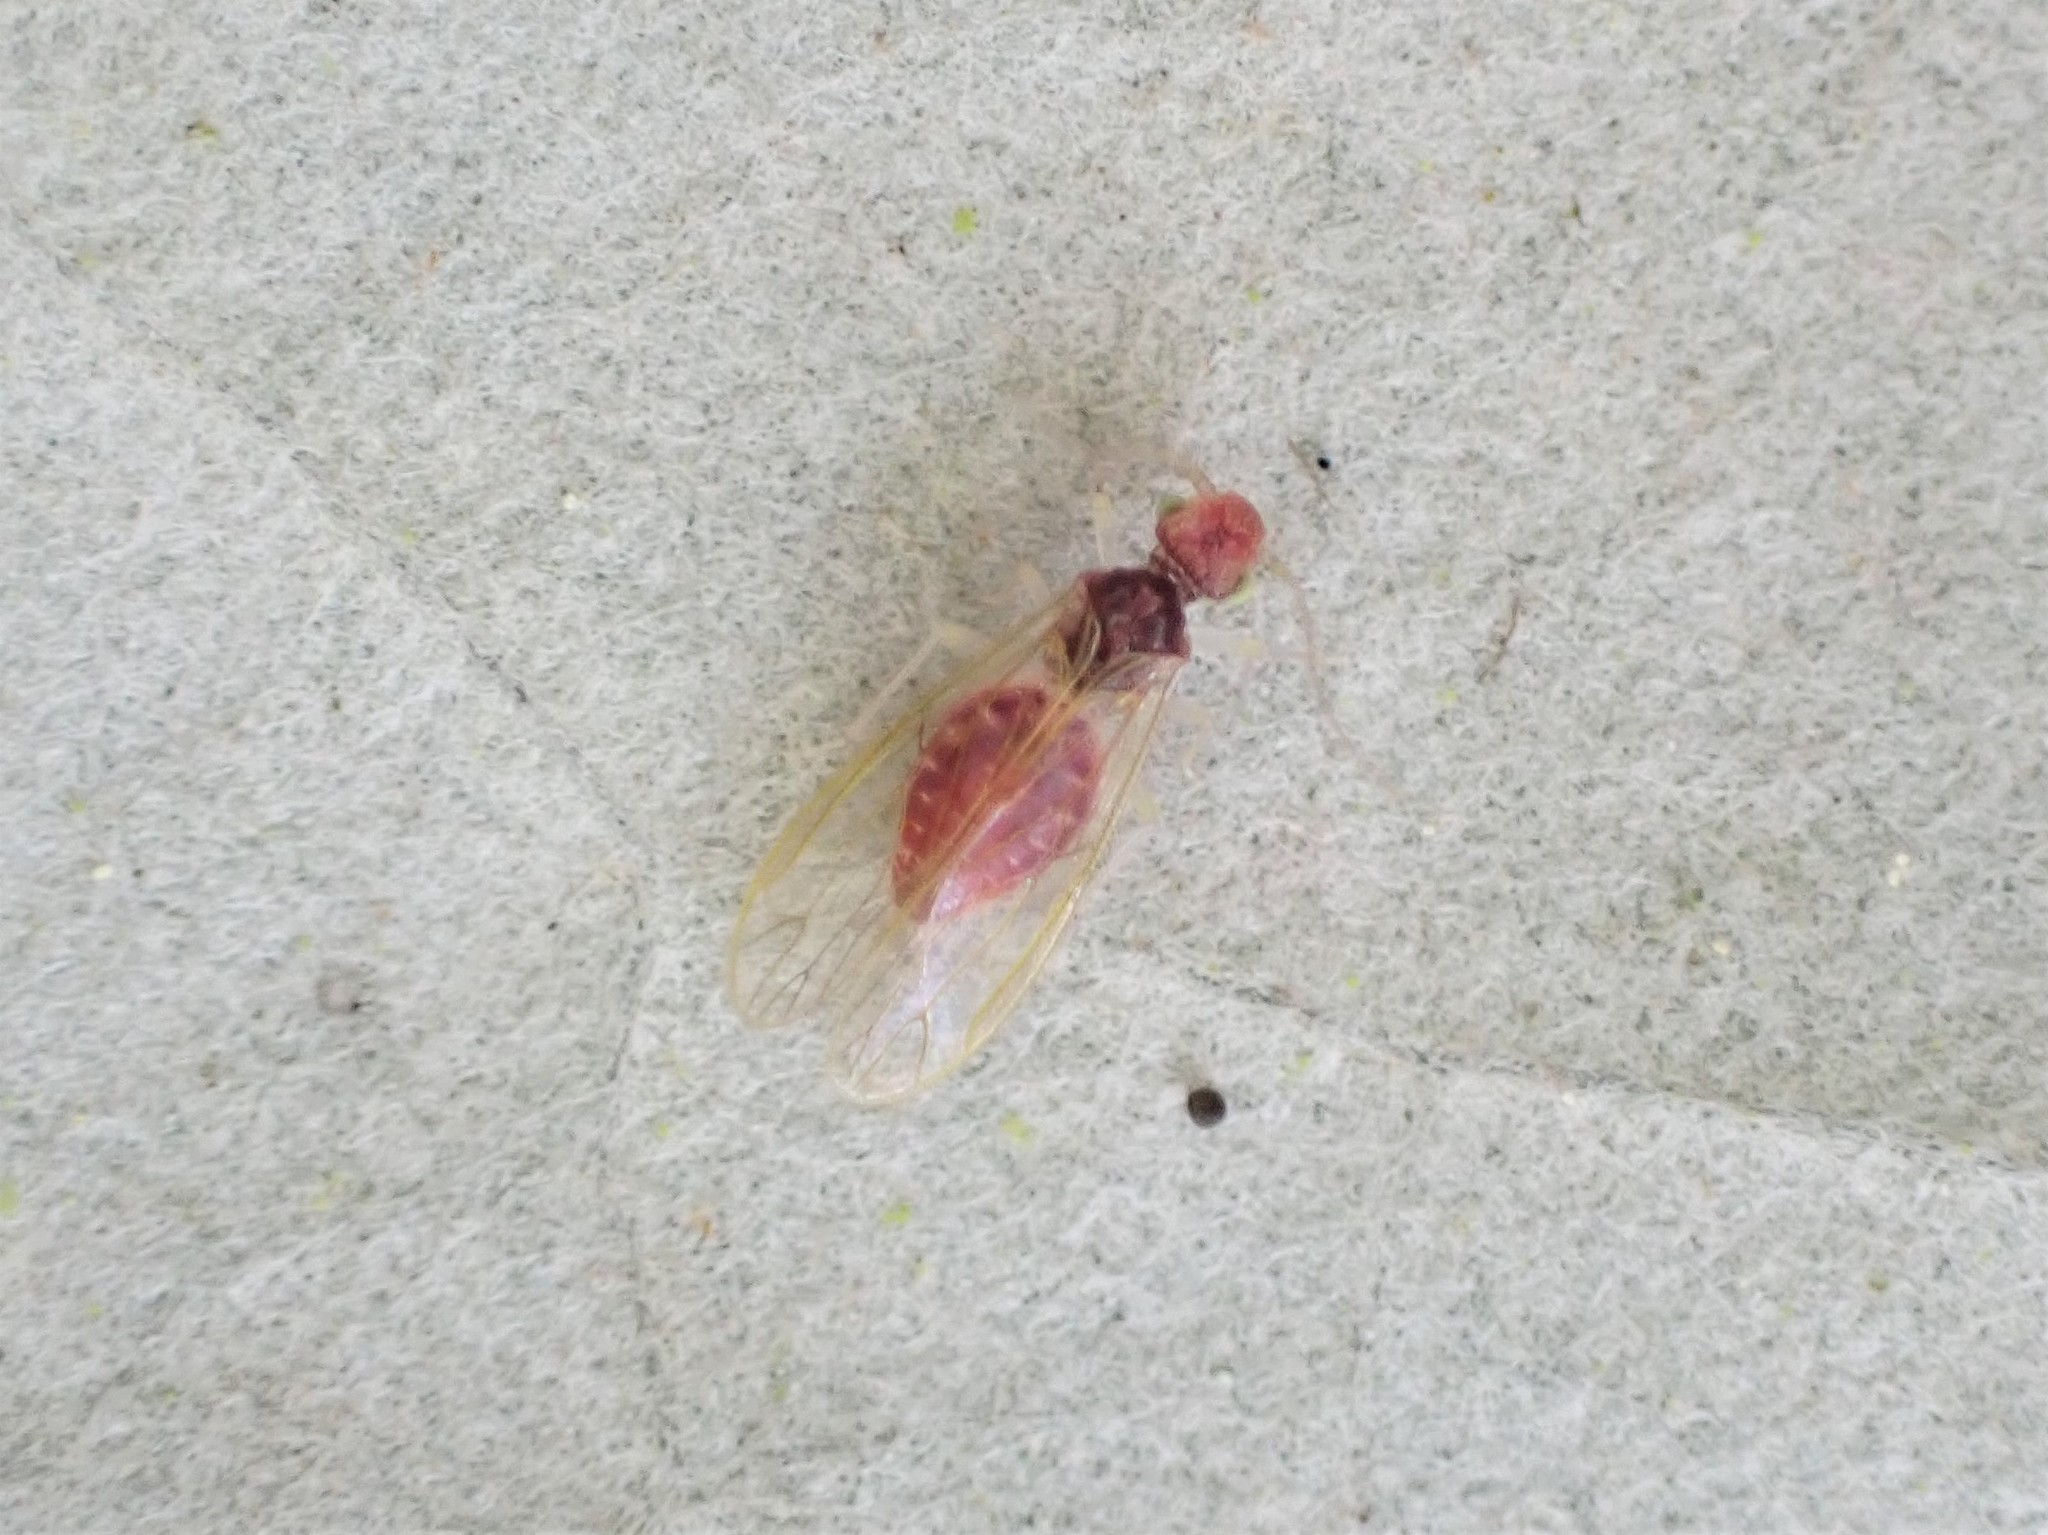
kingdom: Animalia
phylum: Arthropoda
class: Insecta
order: Psocodea
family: Pseudocaeciliidae
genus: Mepleres
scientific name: Mepleres watti
